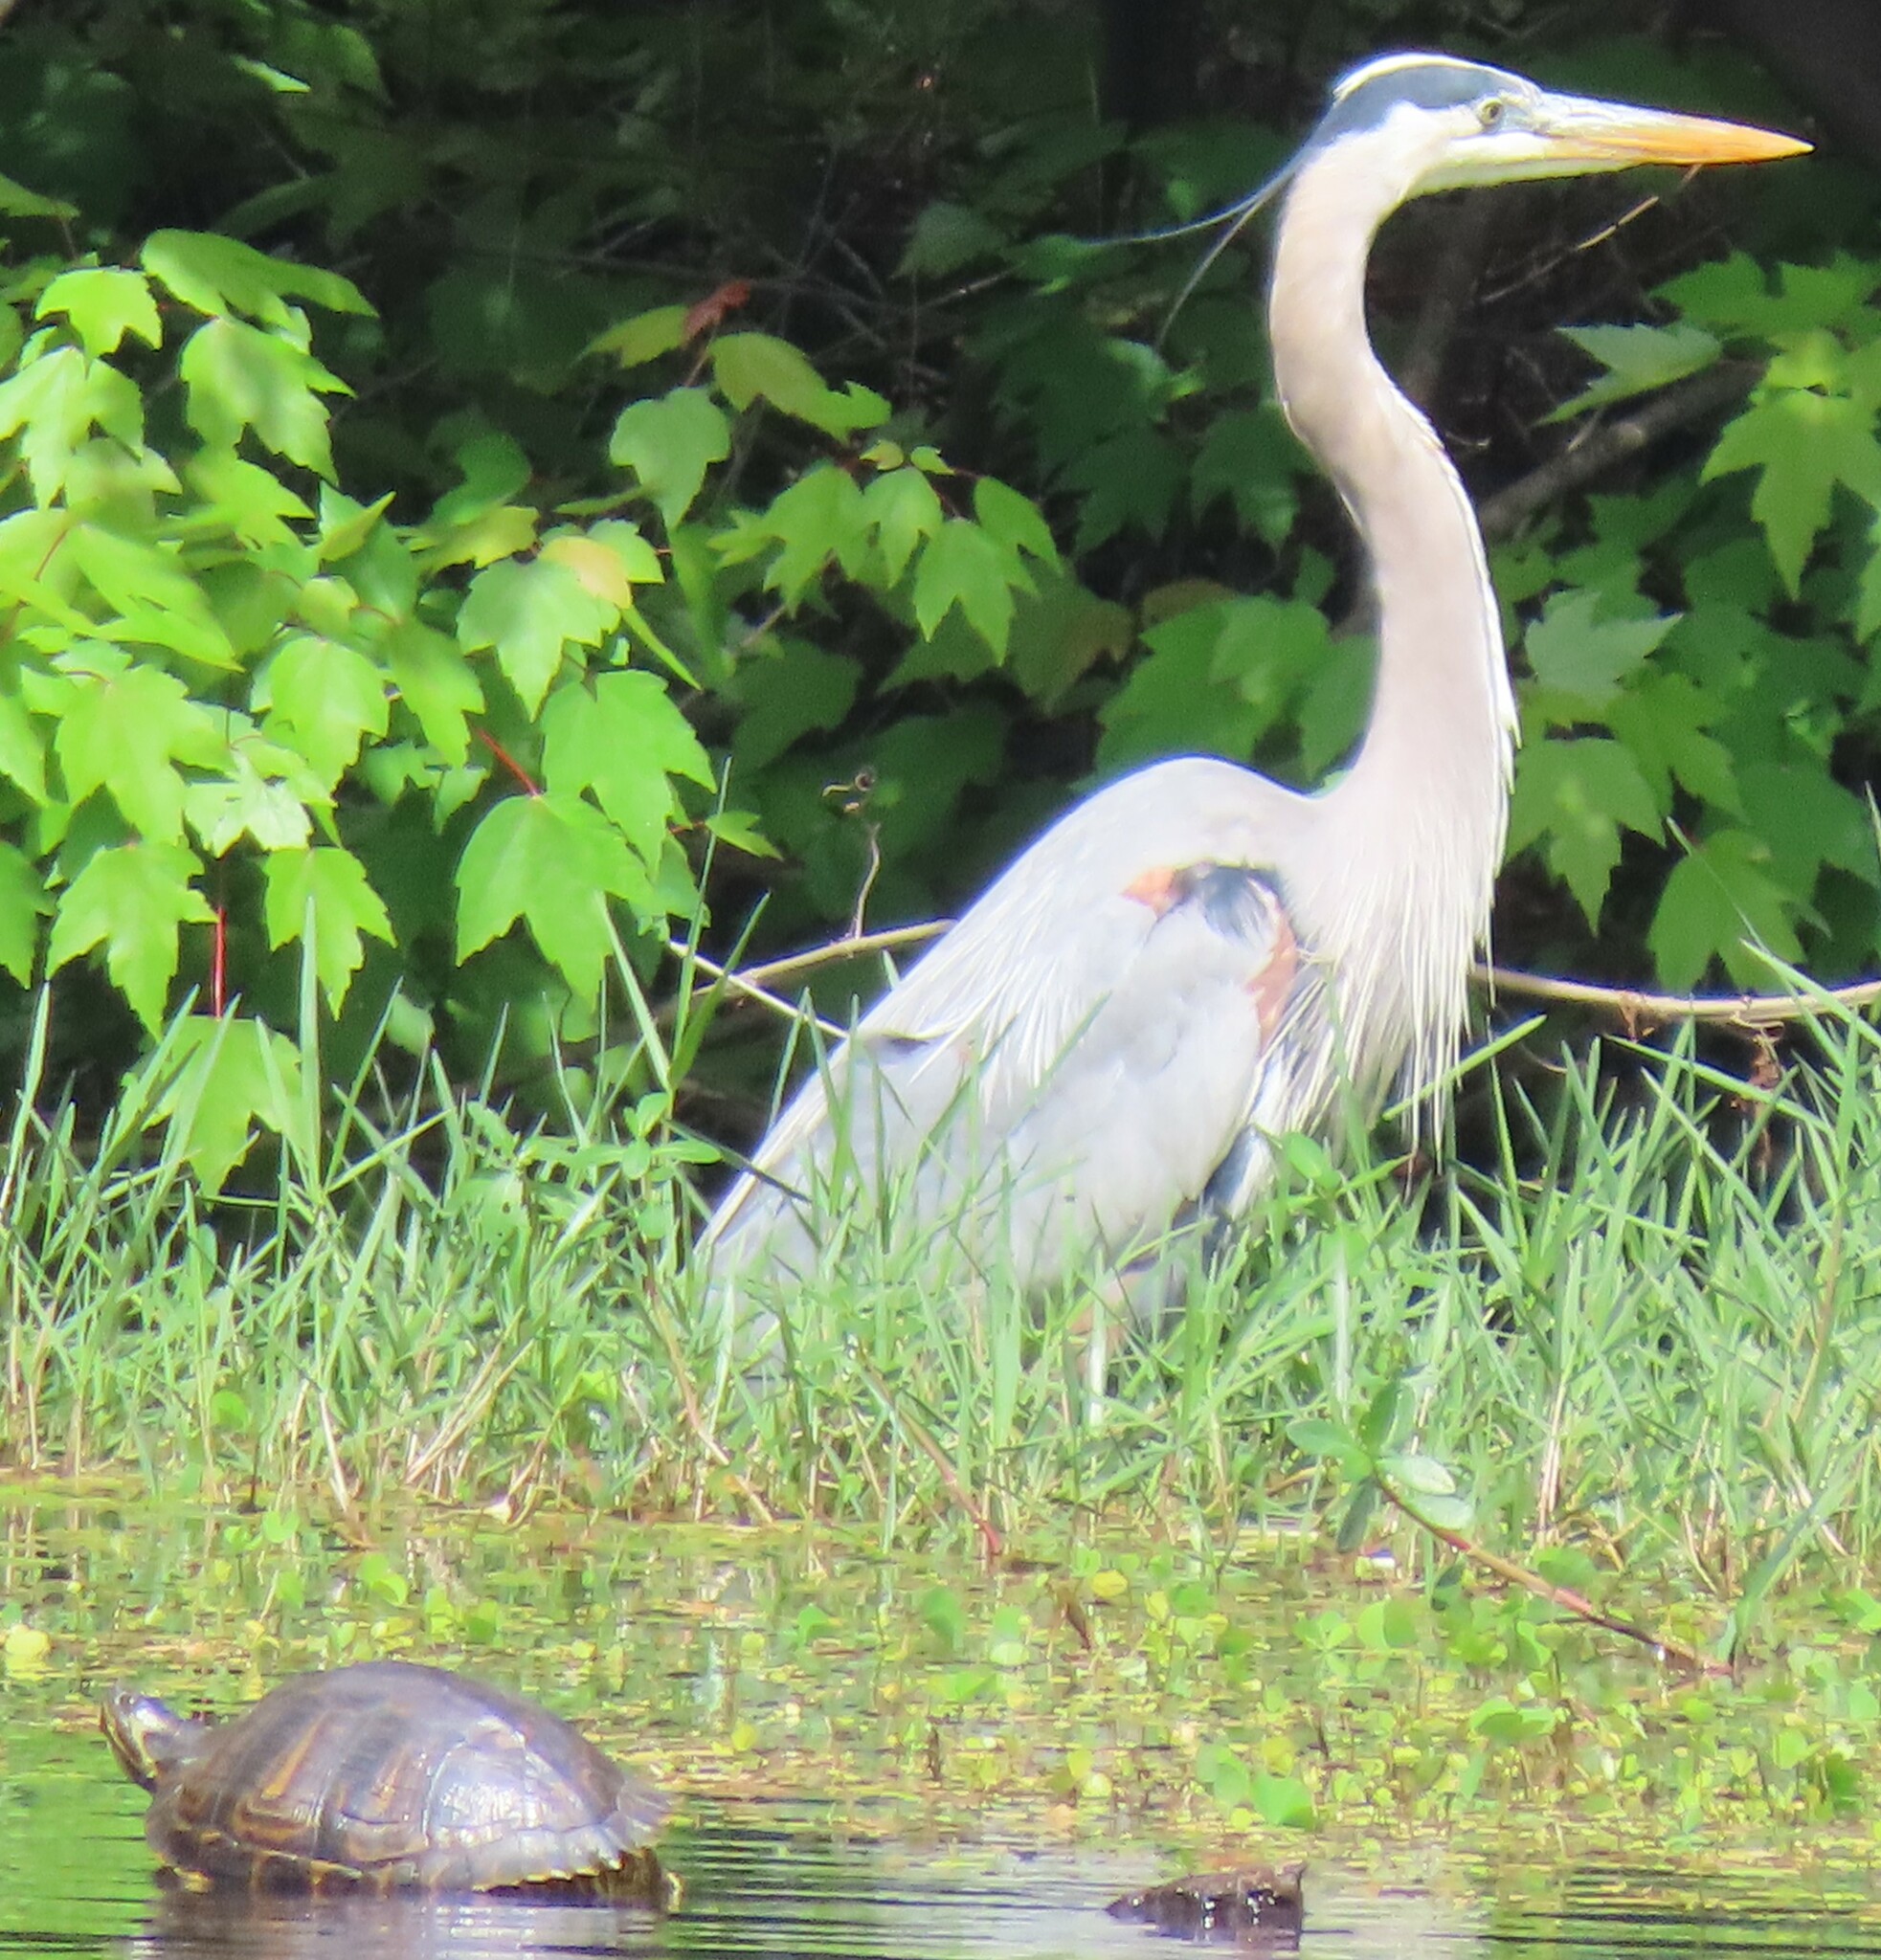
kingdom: Animalia
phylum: Chordata
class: Aves
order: Pelecaniformes
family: Ardeidae
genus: Ardea
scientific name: Ardea herodias
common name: Great blue heron
